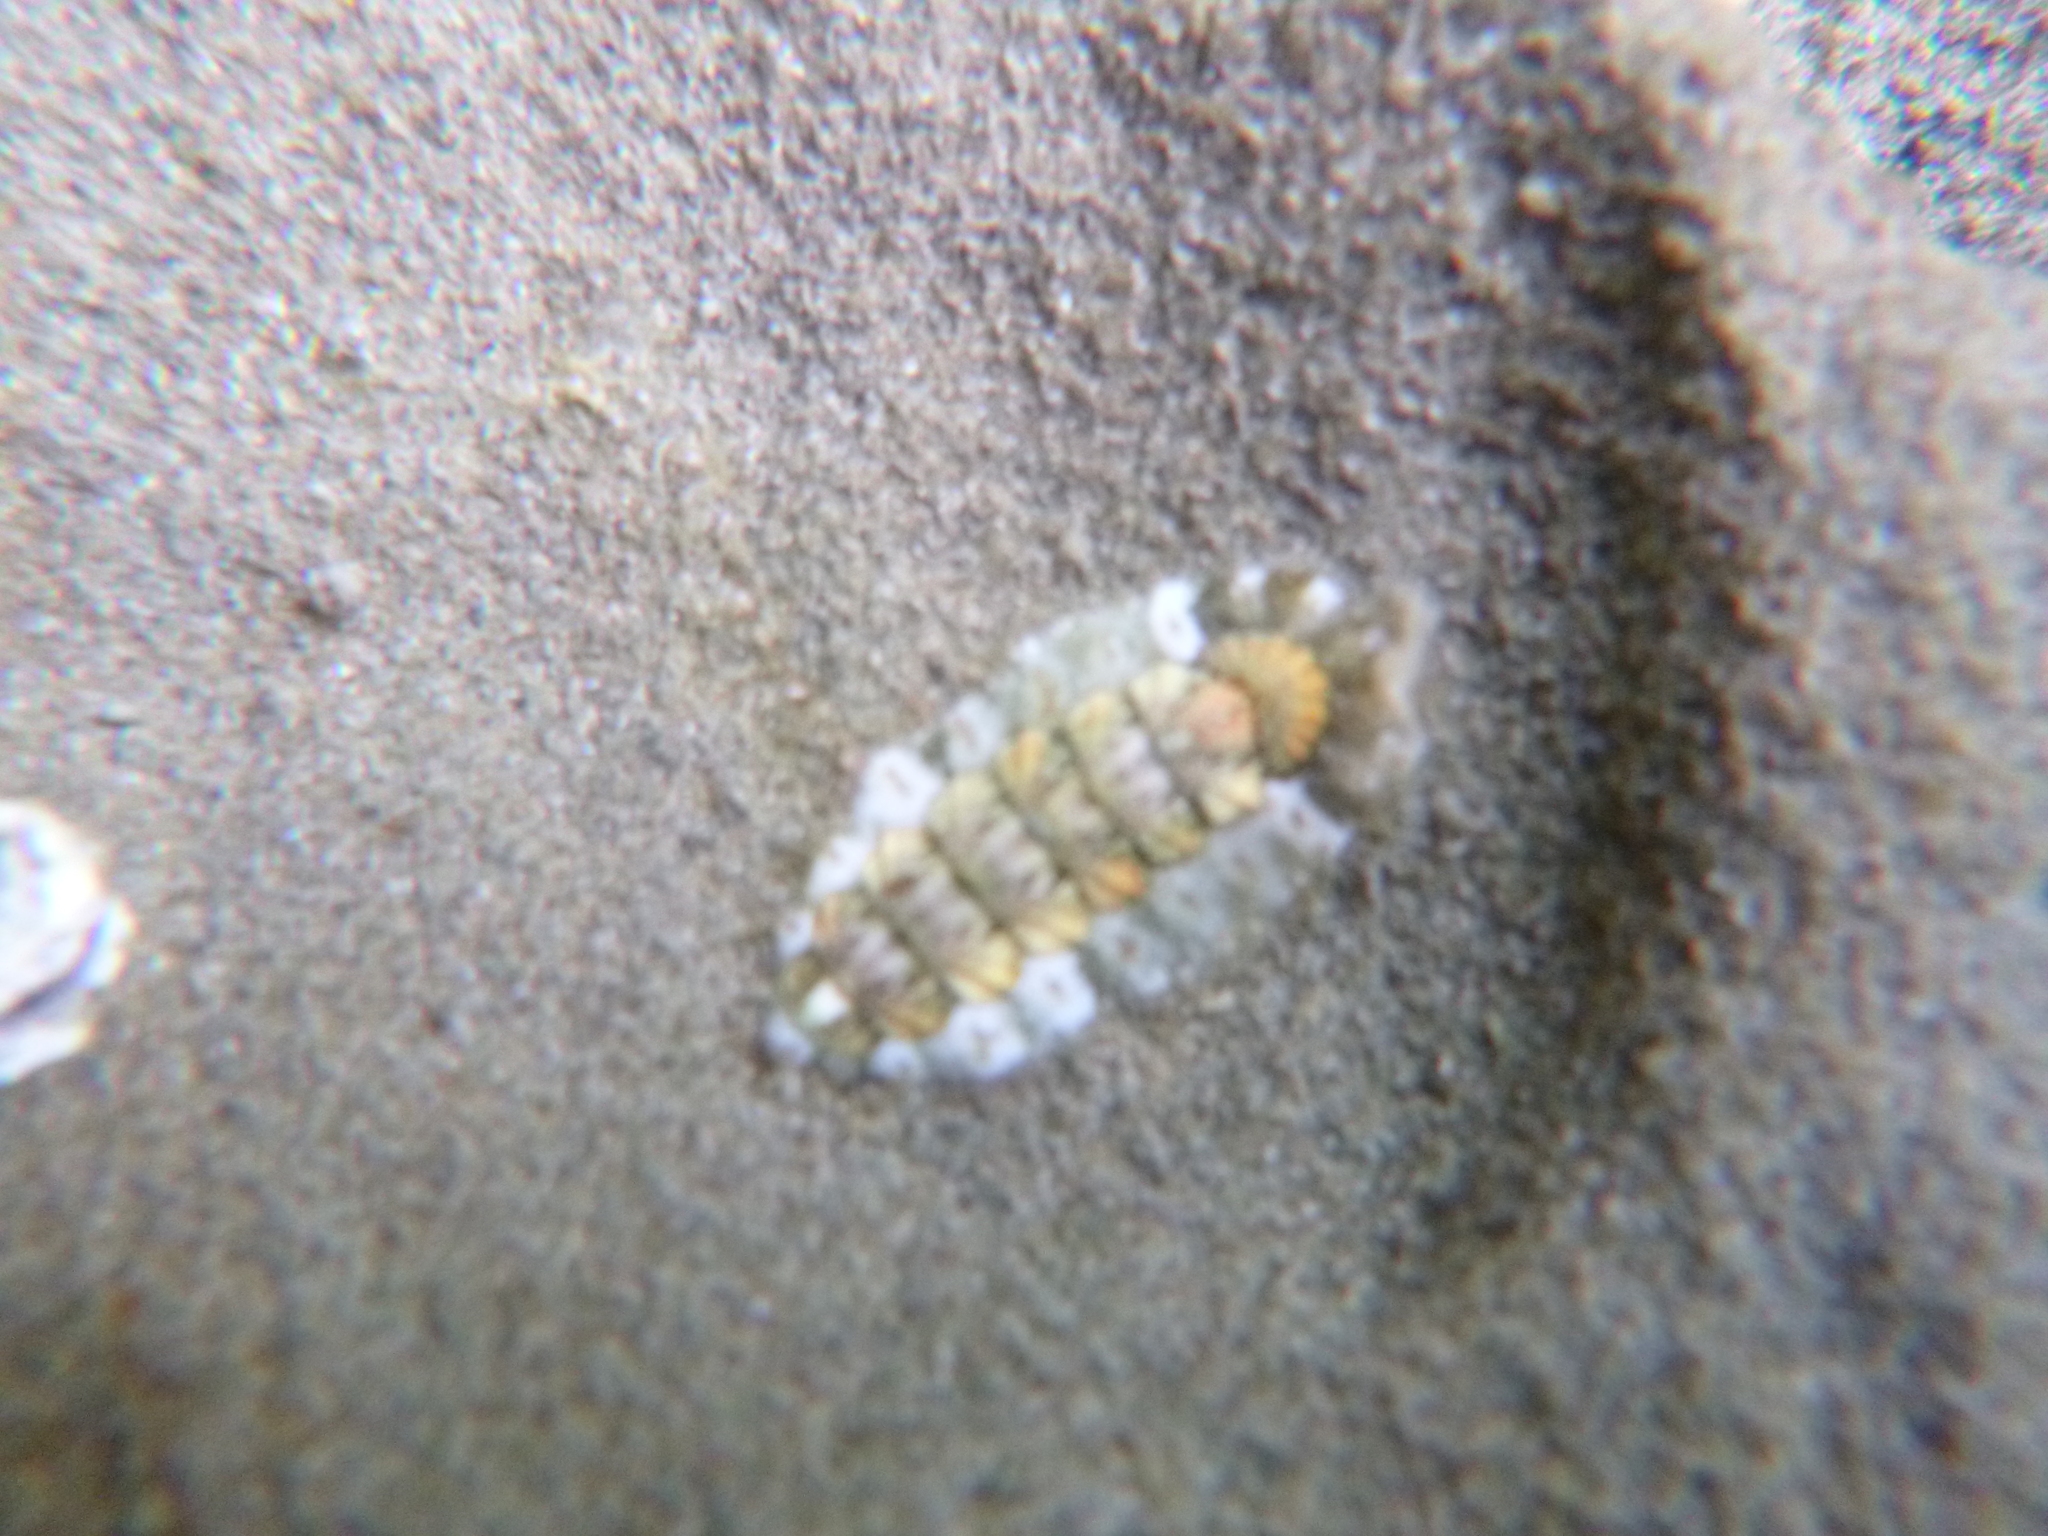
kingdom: Animalia
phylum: Mollusca
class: Polyplacophora
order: Chitonida
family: Mopaliidae
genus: Plaxiphora
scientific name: Plaxiphora caelata
